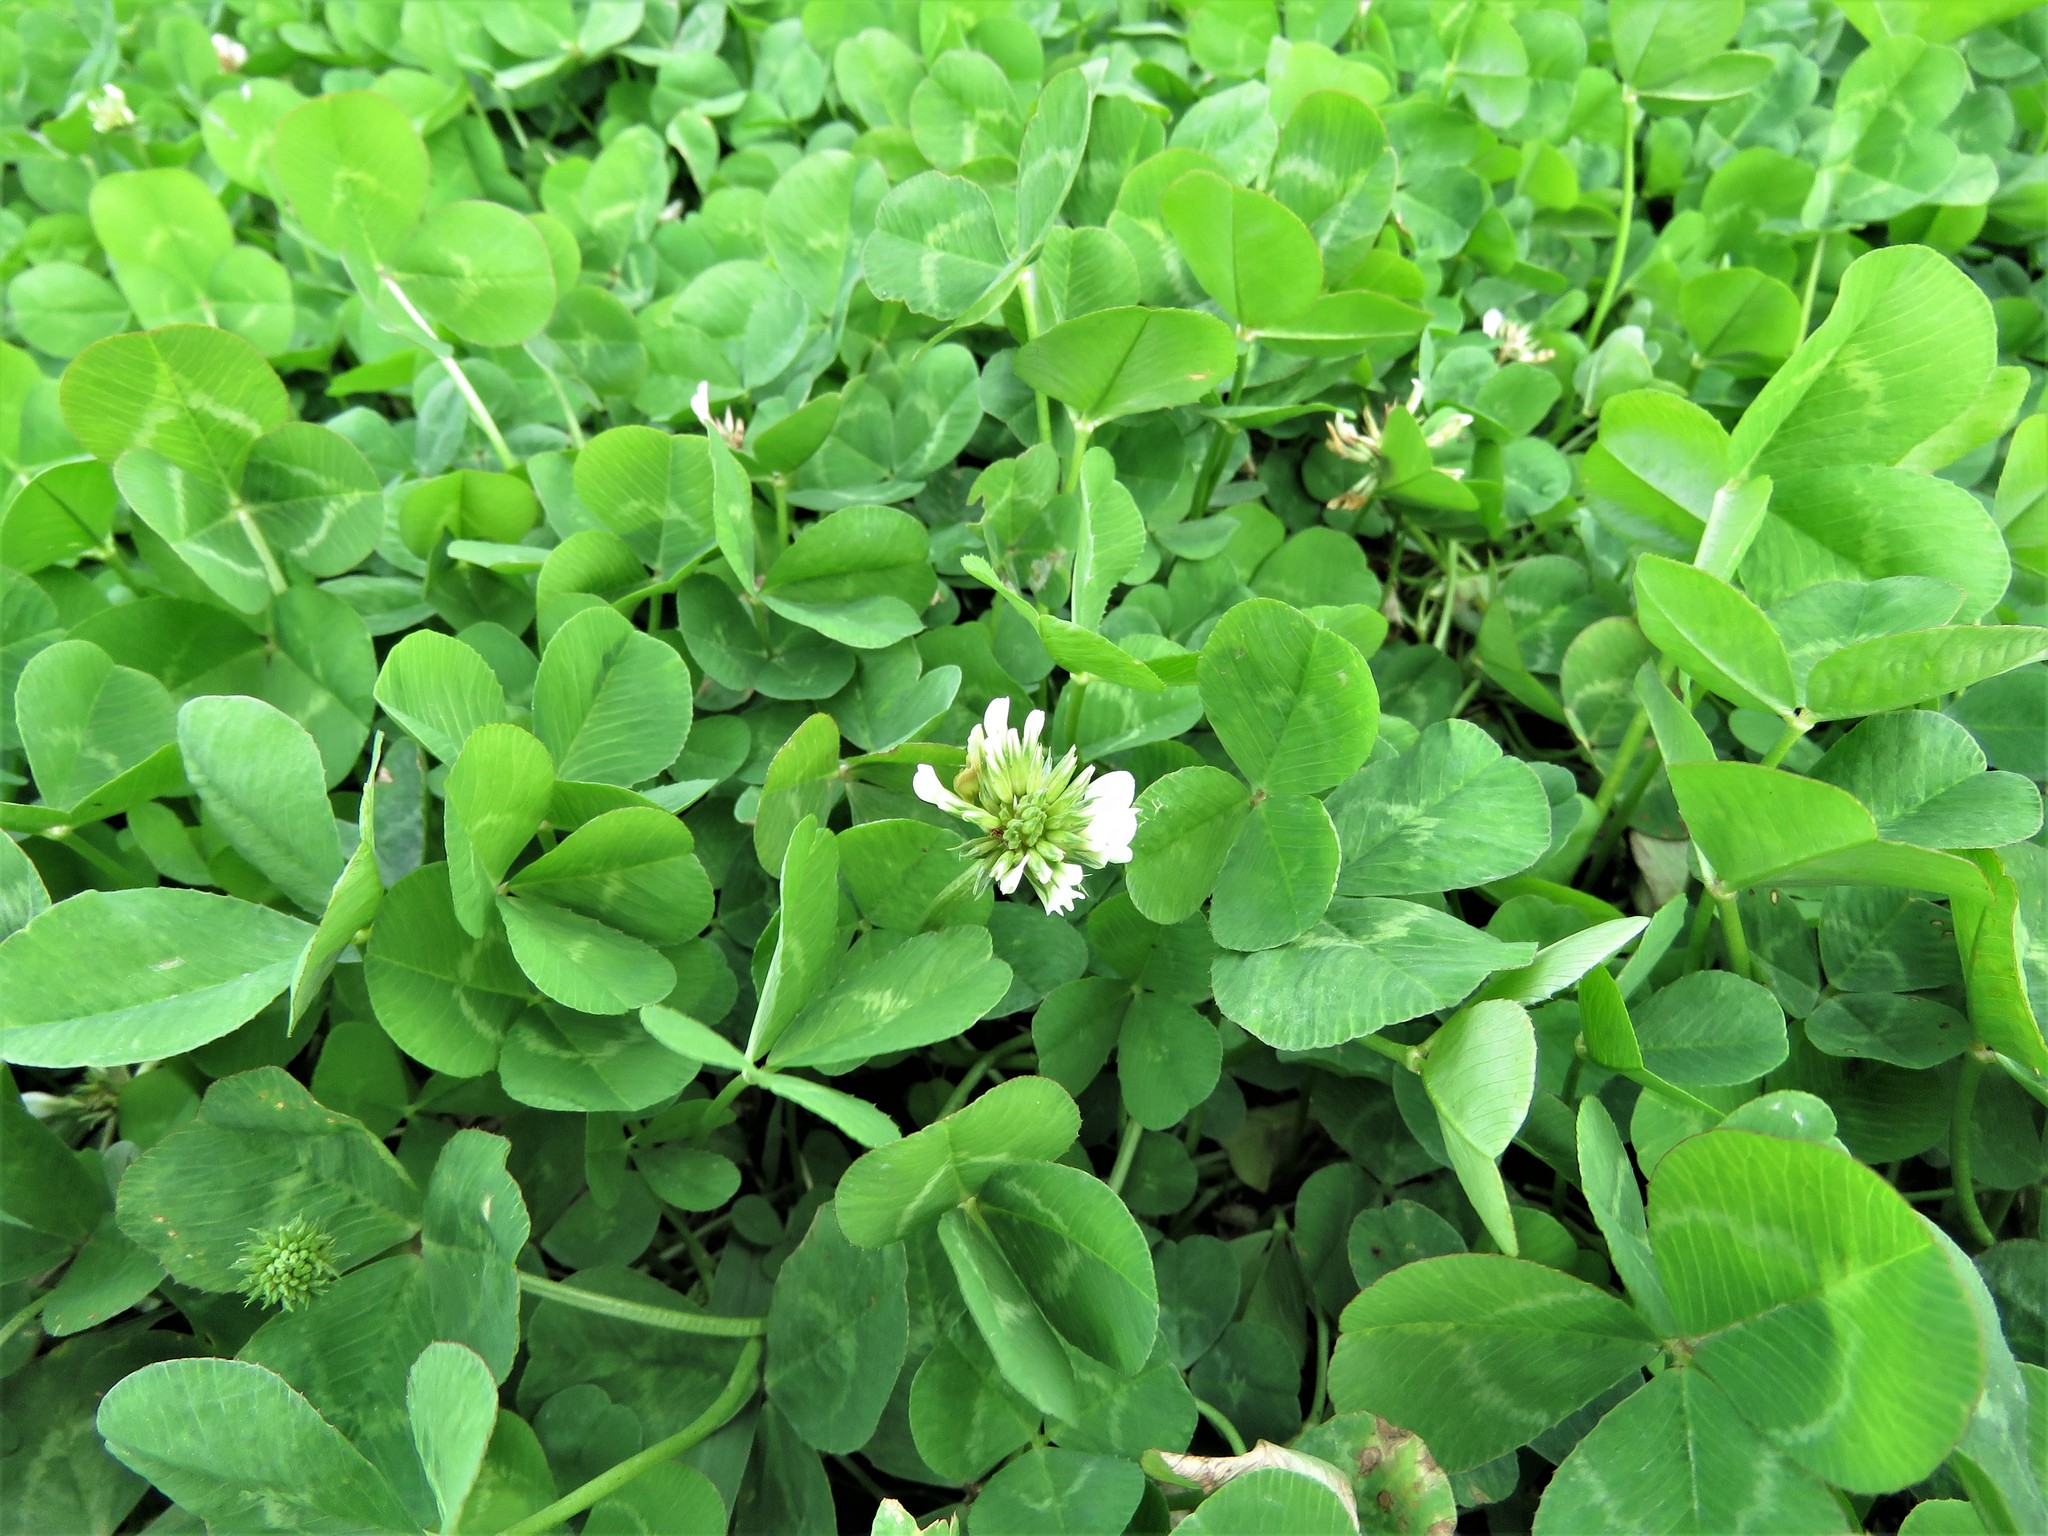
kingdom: Plantae
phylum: Tracheophyta
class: Magnoliopsida
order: Fabales
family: Fabaceae
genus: Trifolium
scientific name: Trifolium repens
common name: White clover
